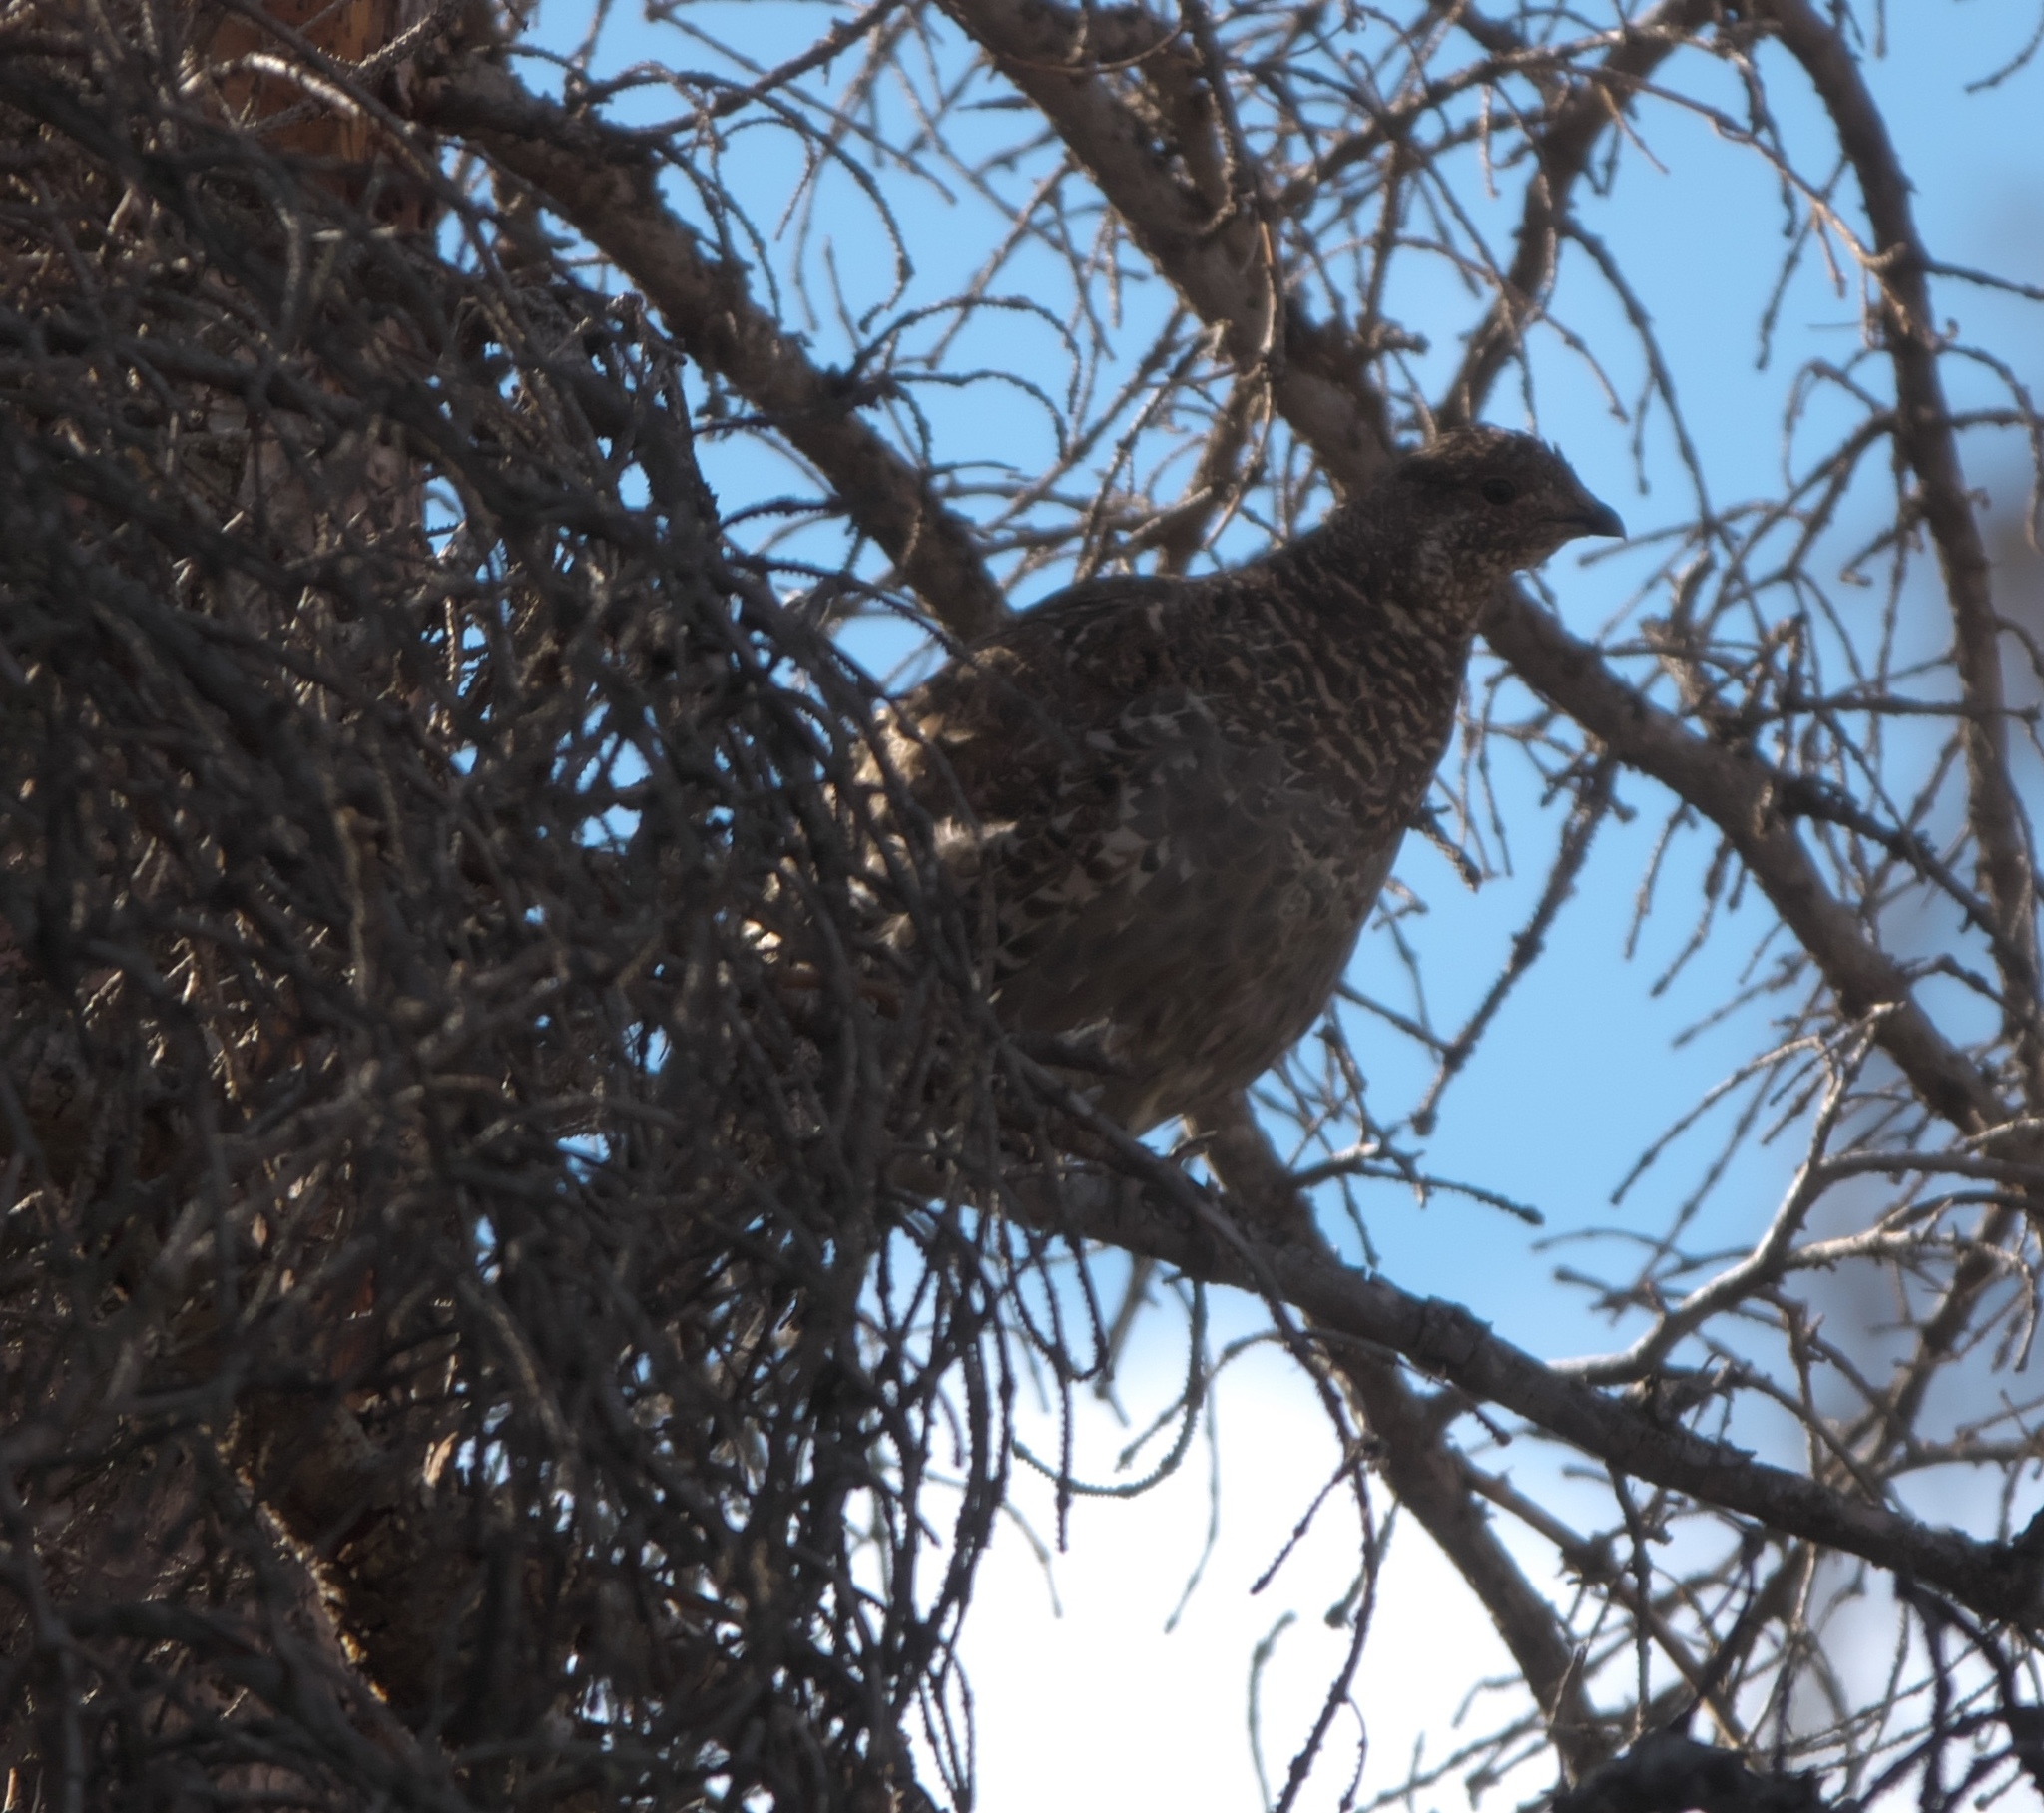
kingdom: Animalia
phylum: Chordata
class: Aves
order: Galliformes
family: Phasianidae
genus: Dendragapus
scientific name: Dendragapus obscurus
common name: Dusky grouse
